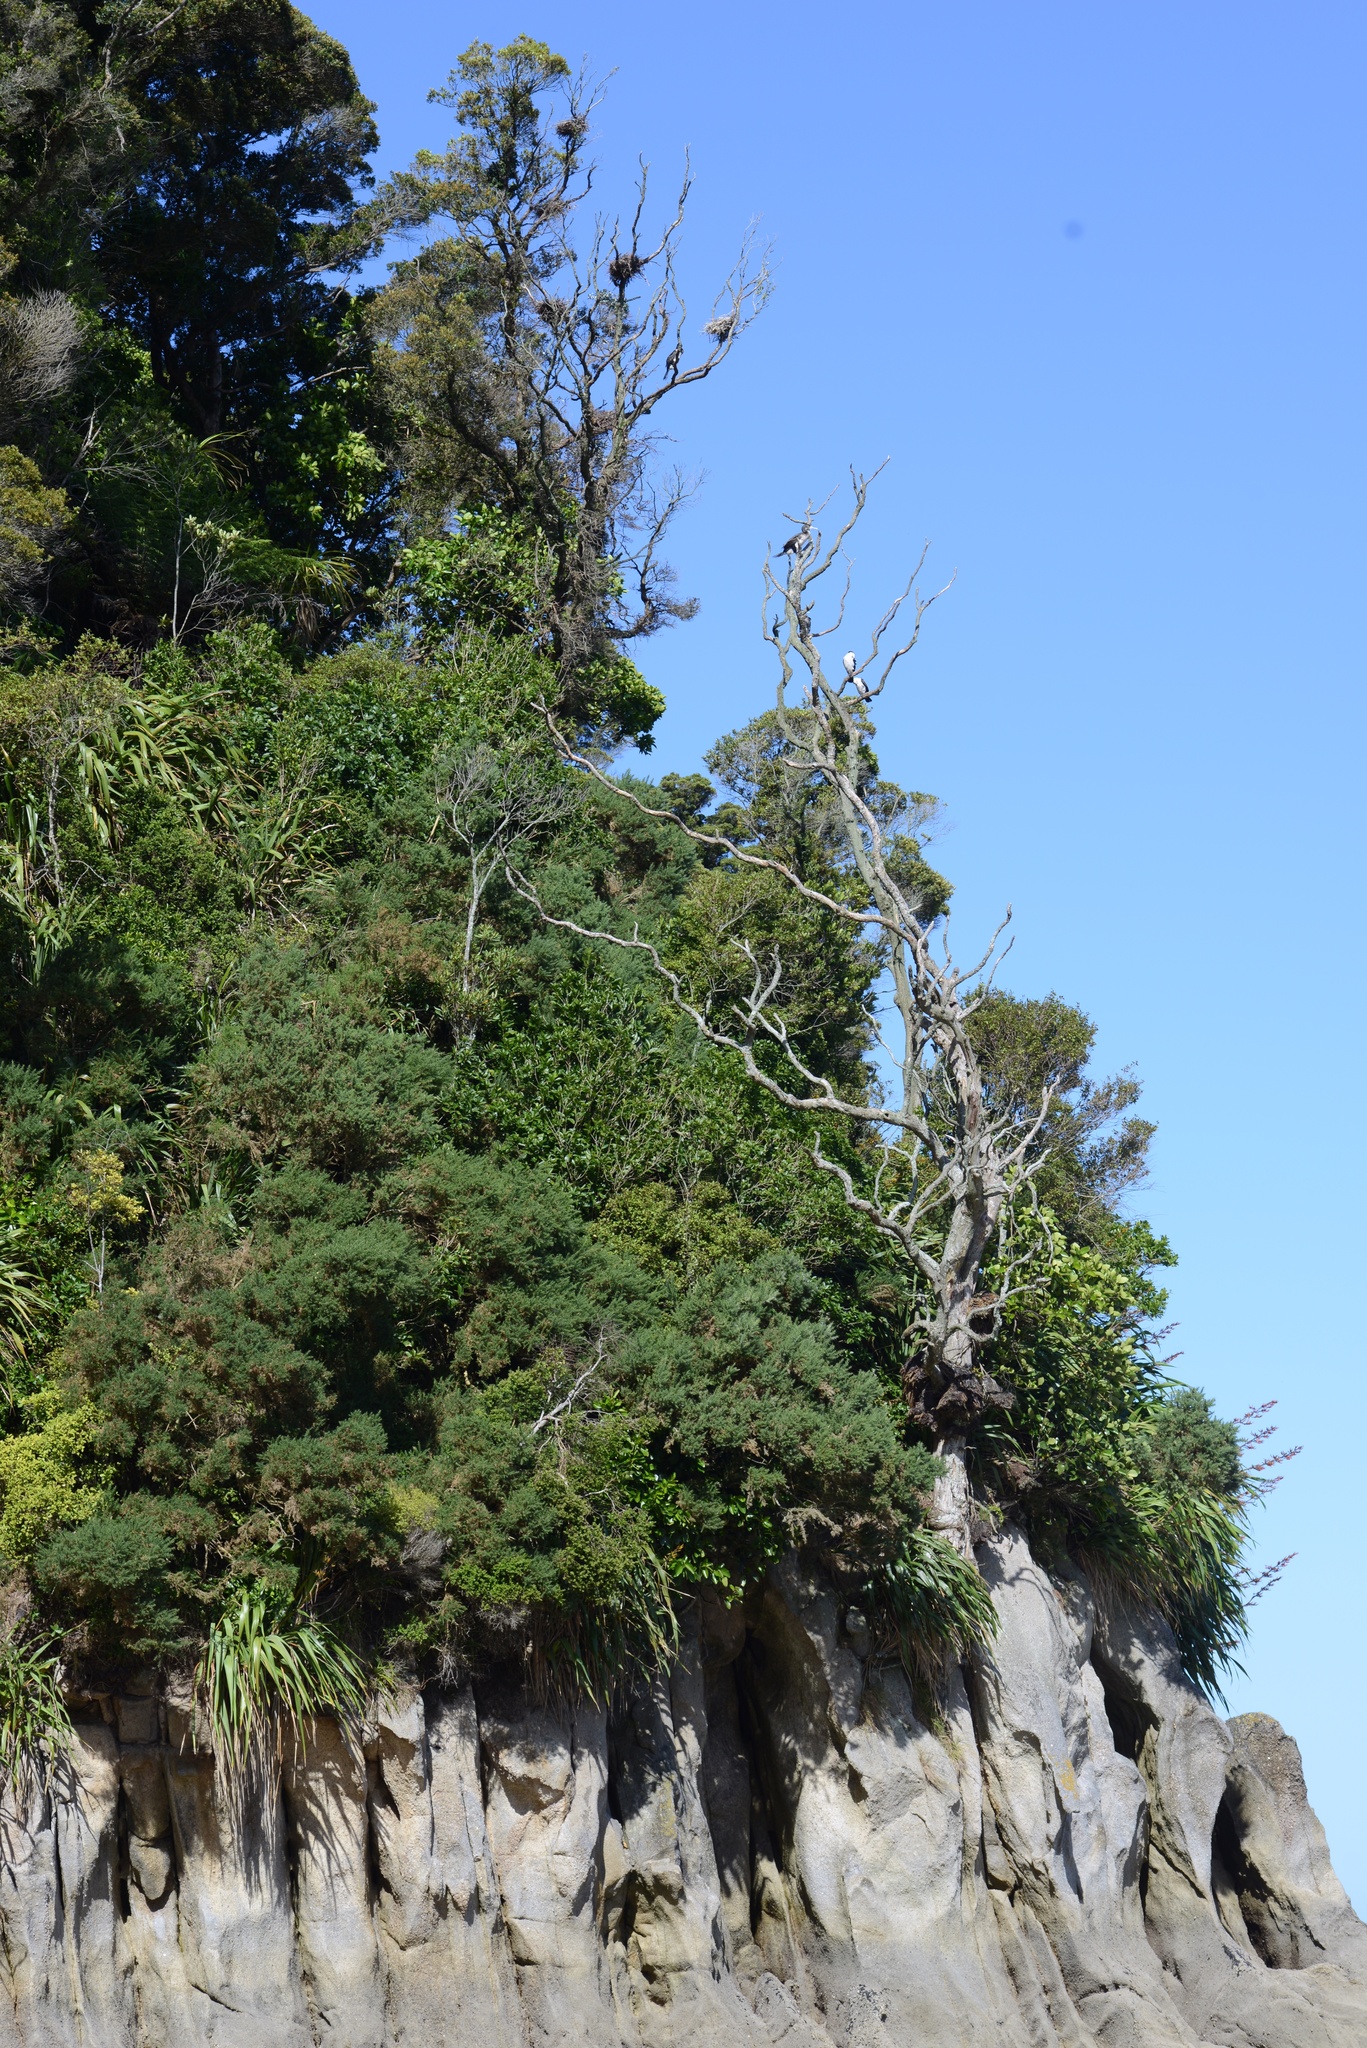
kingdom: Animalia
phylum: Chordata
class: Aves
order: Suliformes
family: Phalacrocoracidae
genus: Phalacrocorax
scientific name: Phalacrocorax varius
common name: Pied cormorant
